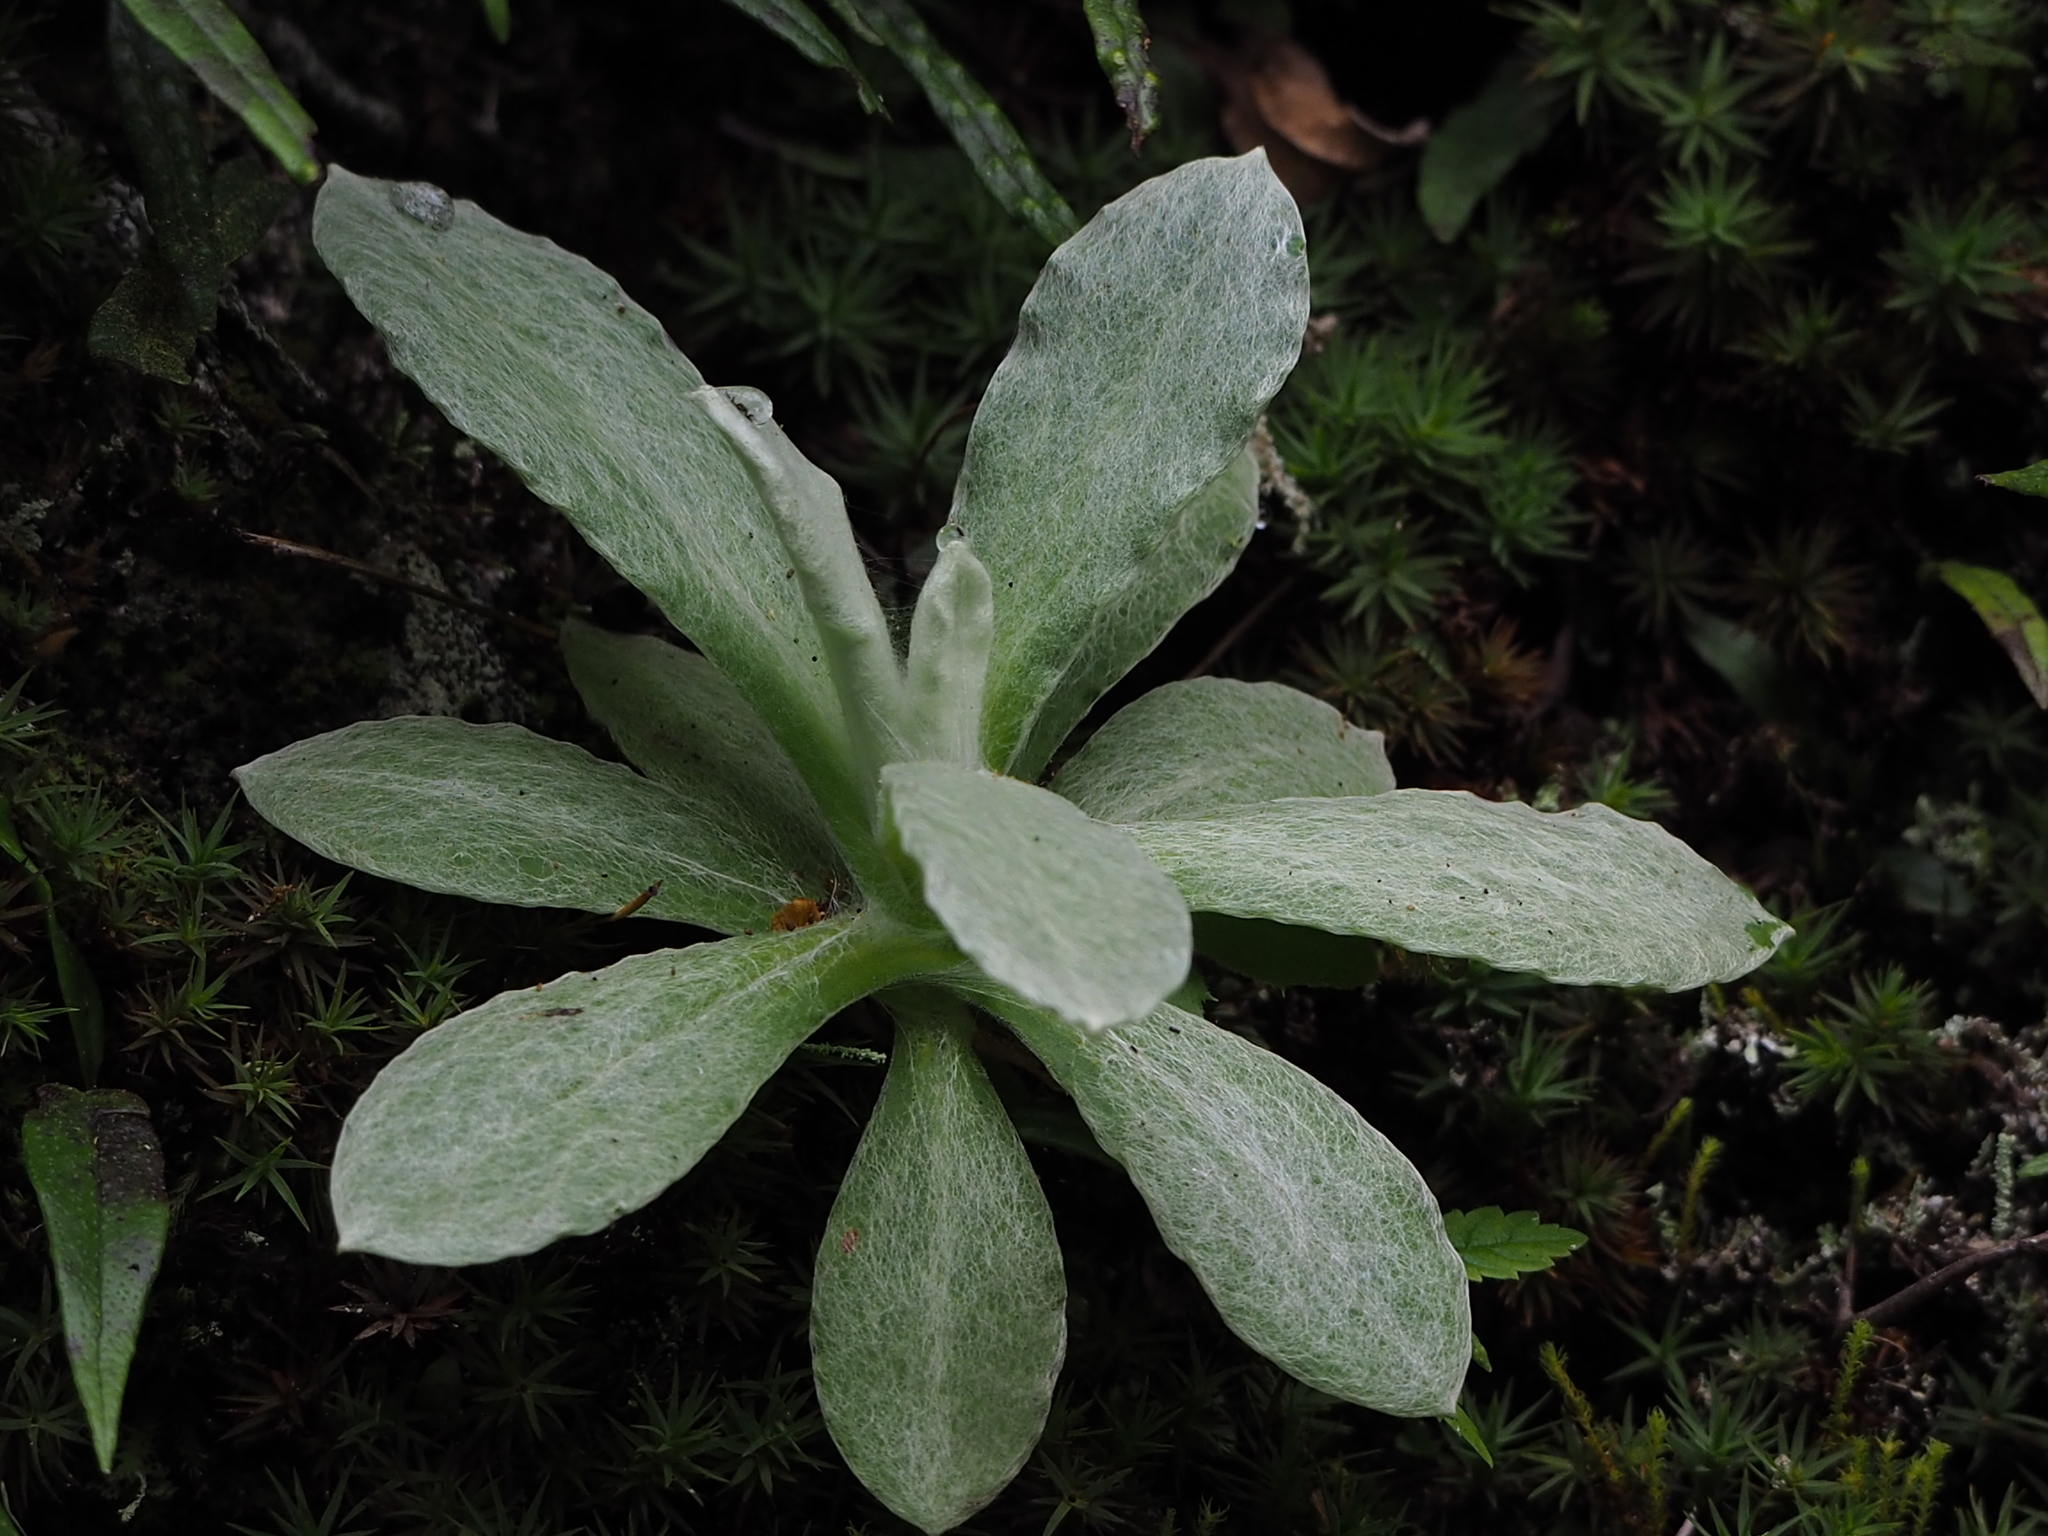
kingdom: Plantae
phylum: Tracheophyta
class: Magnoliopsida
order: Asterales
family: Asteraceae
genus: Pseudognaphalium
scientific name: Pseudognaphalium adnatum
